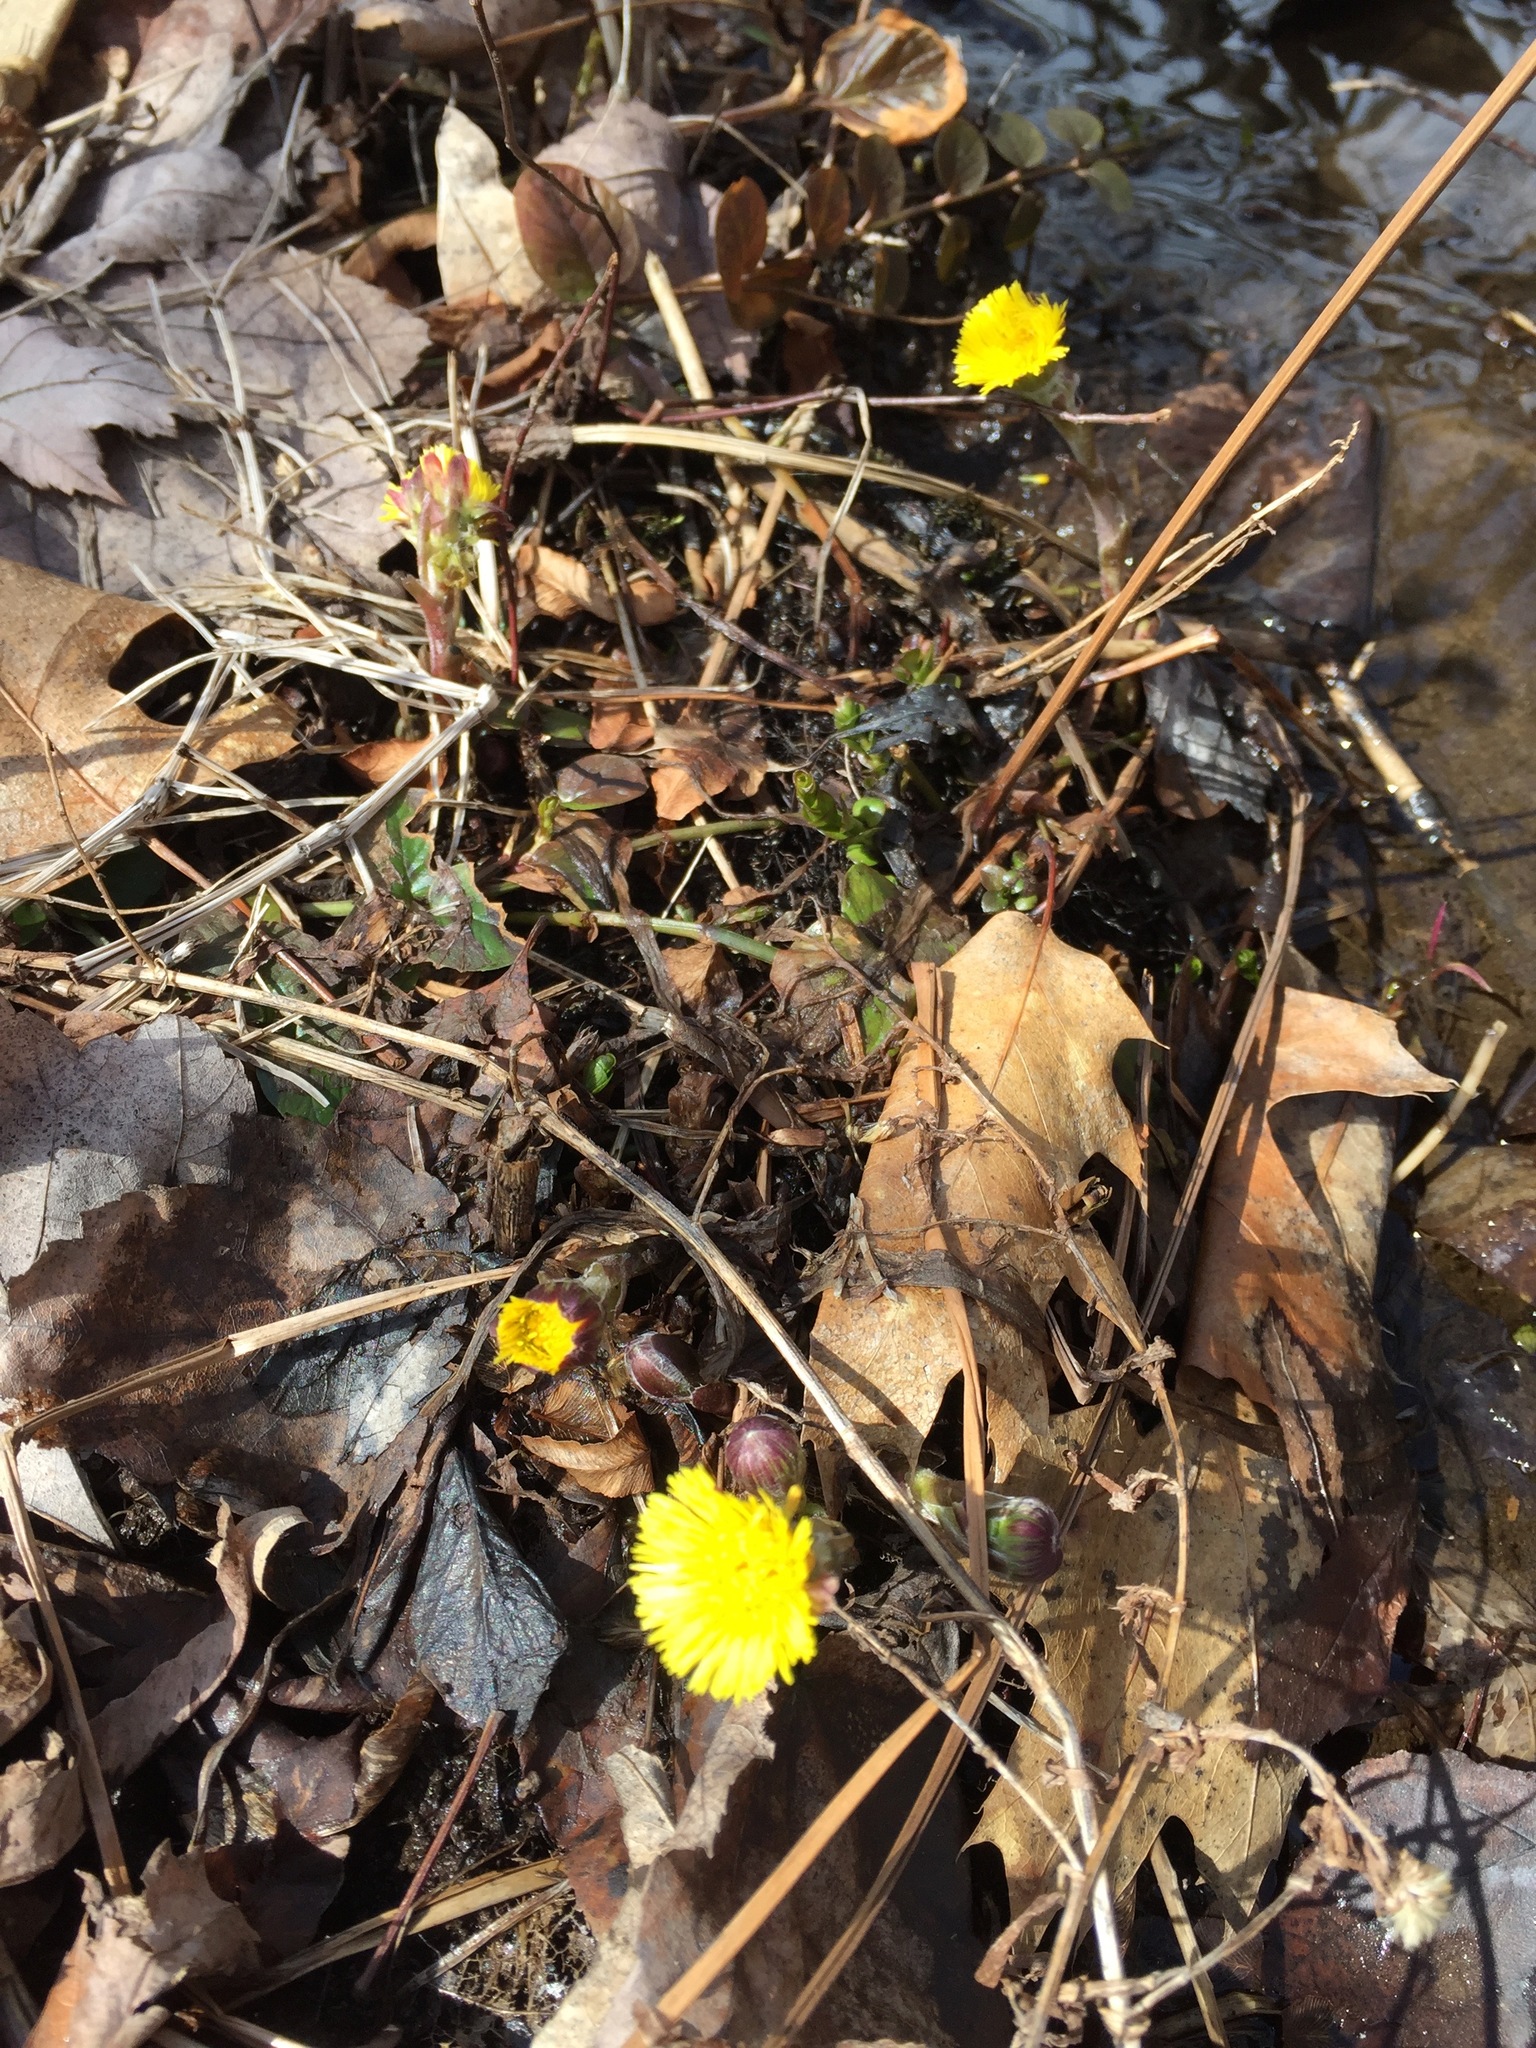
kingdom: Plantae
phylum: Tracheophyta
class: Magnoliopsida
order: Asterales
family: Asteraceae
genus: Tussilago
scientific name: Tussilago farfara
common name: Coltsfoot
